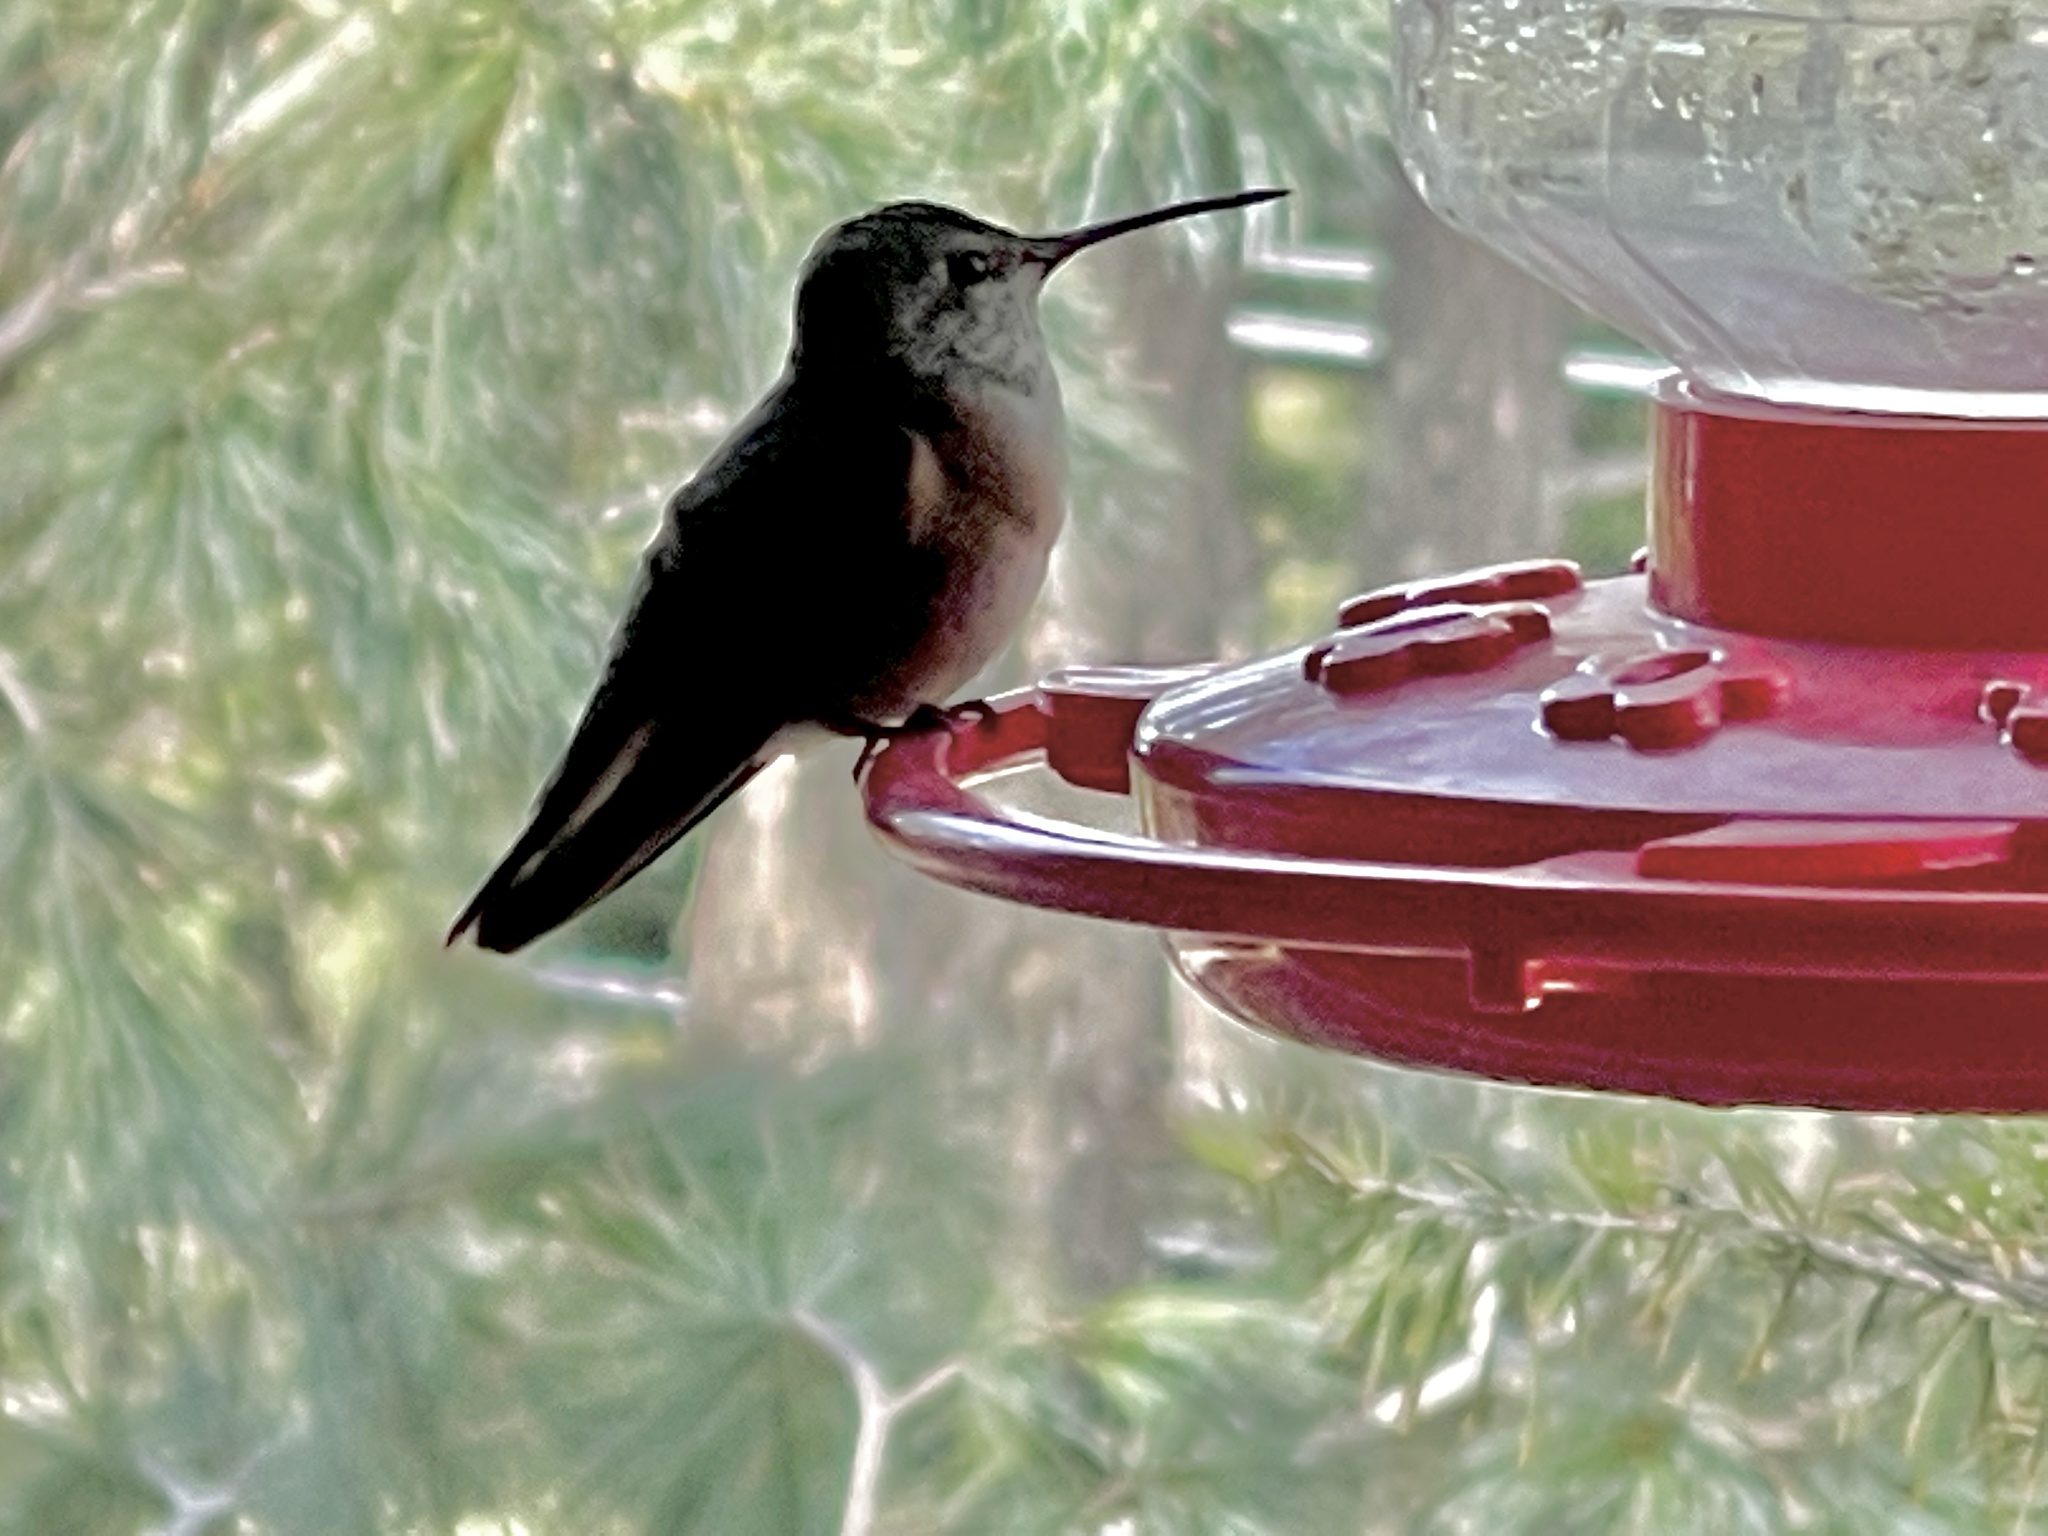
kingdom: Animalia
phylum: Chordata
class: Aves
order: Apodiformes
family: Trochilidae
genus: Selasphorus
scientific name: Selasphorus platycercus
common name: Broad-tailed hummingbird
